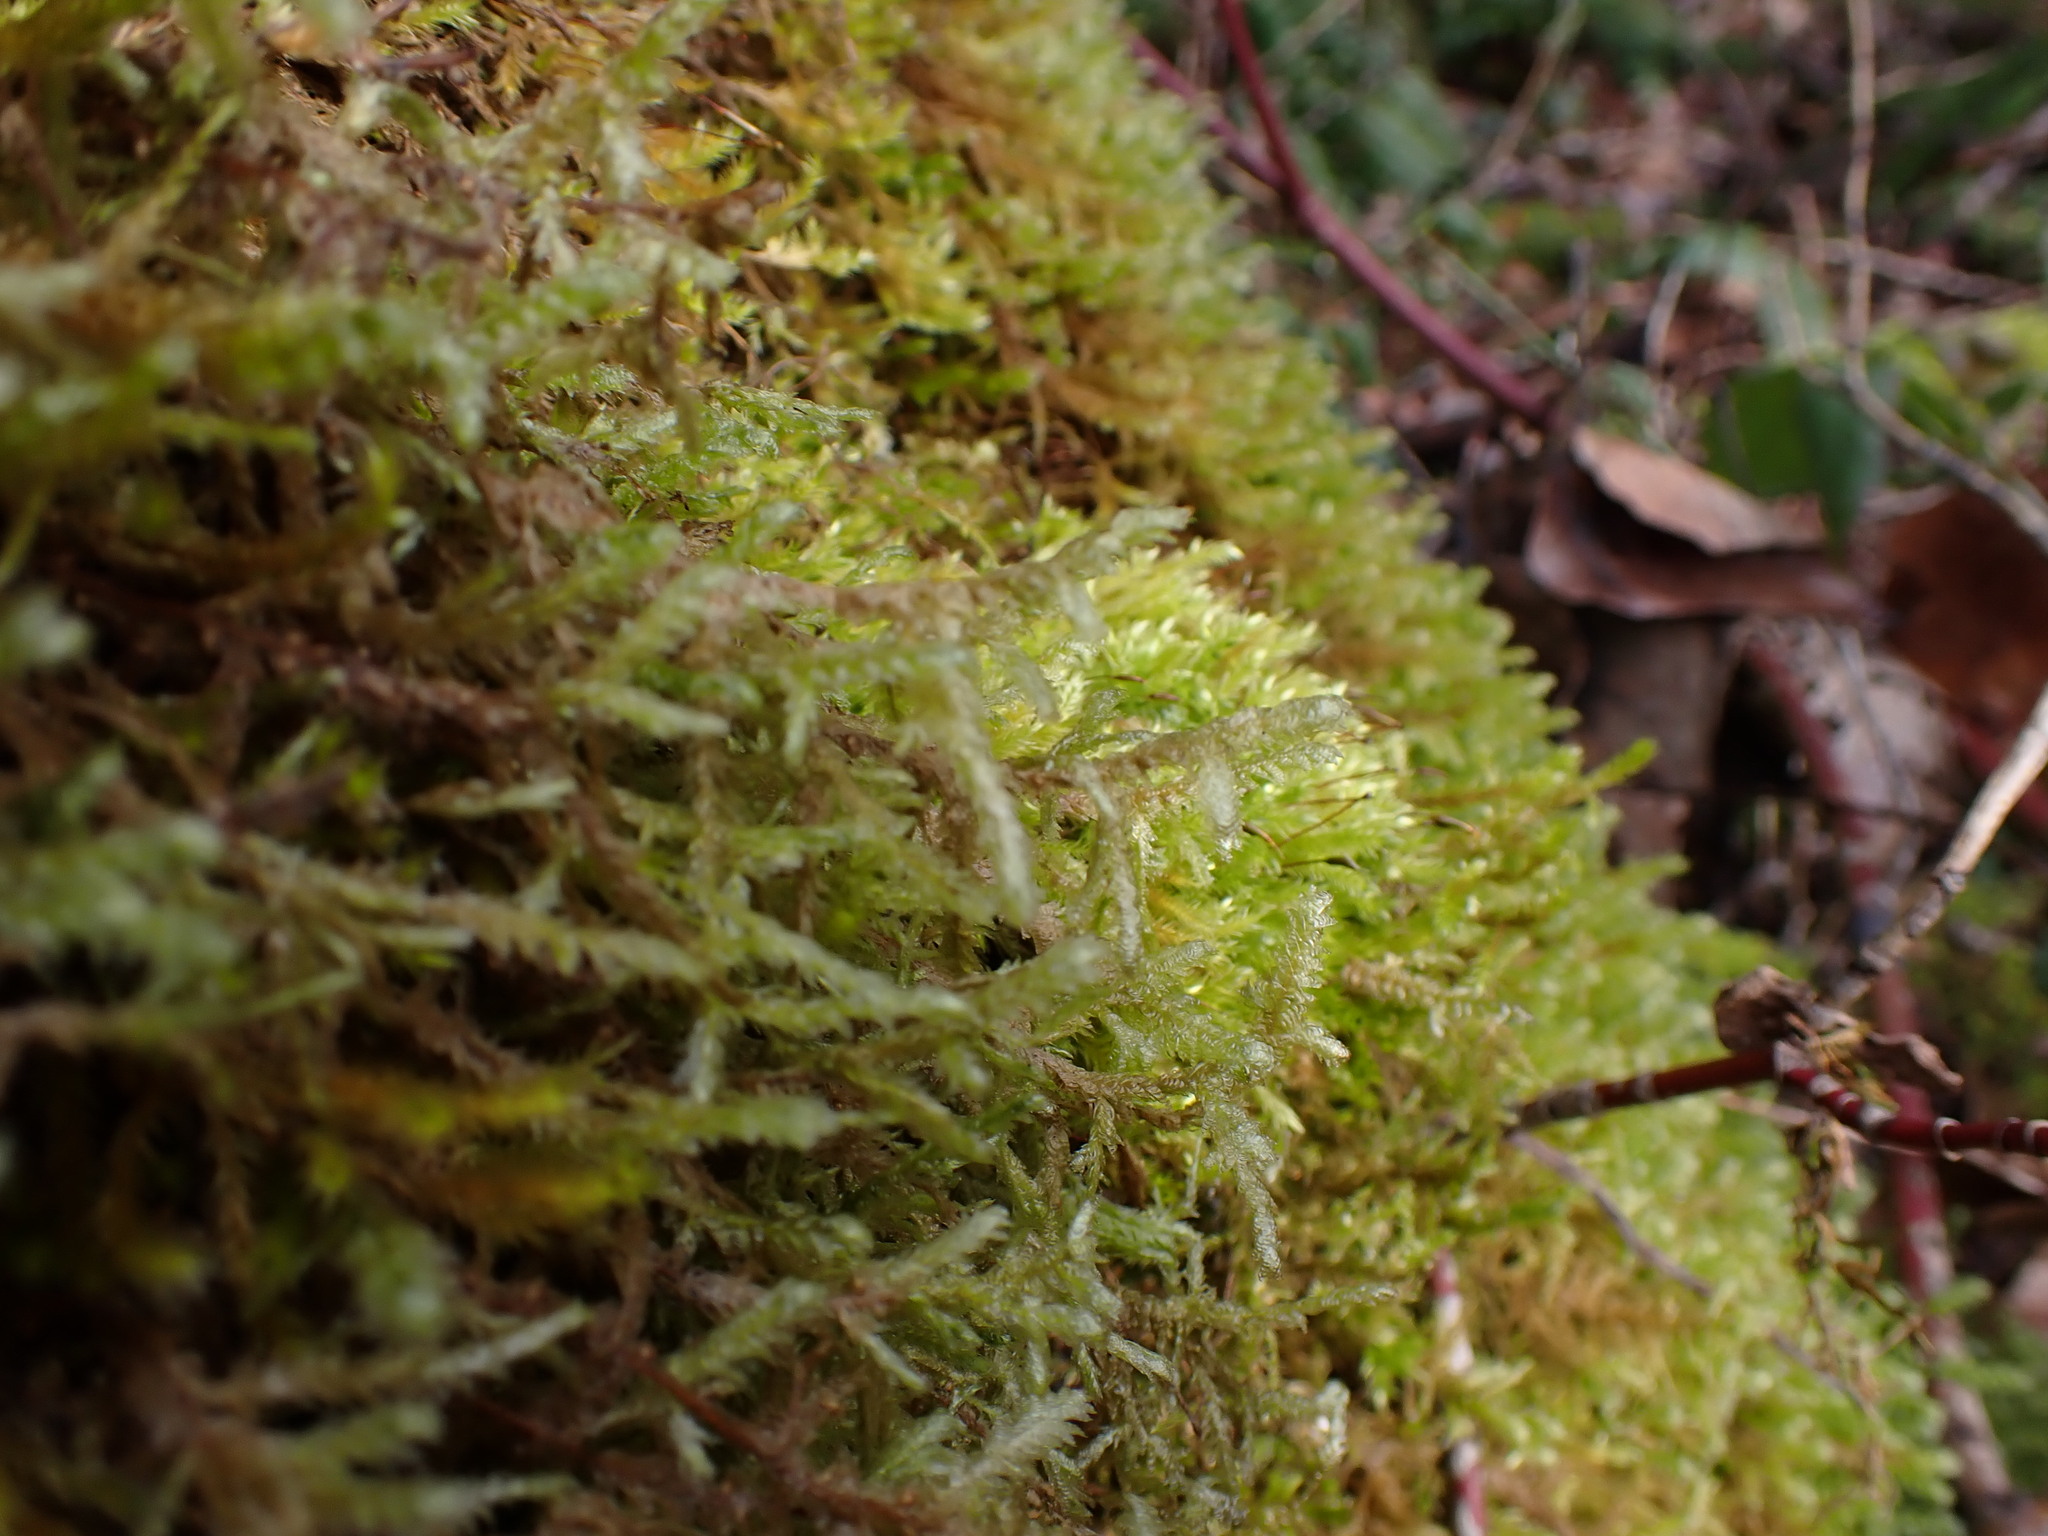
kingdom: Plantae
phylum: Bryophyta
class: Bryopsida
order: Hypnales
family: Neckeraceae
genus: Neckera
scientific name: Neckera douglasii
